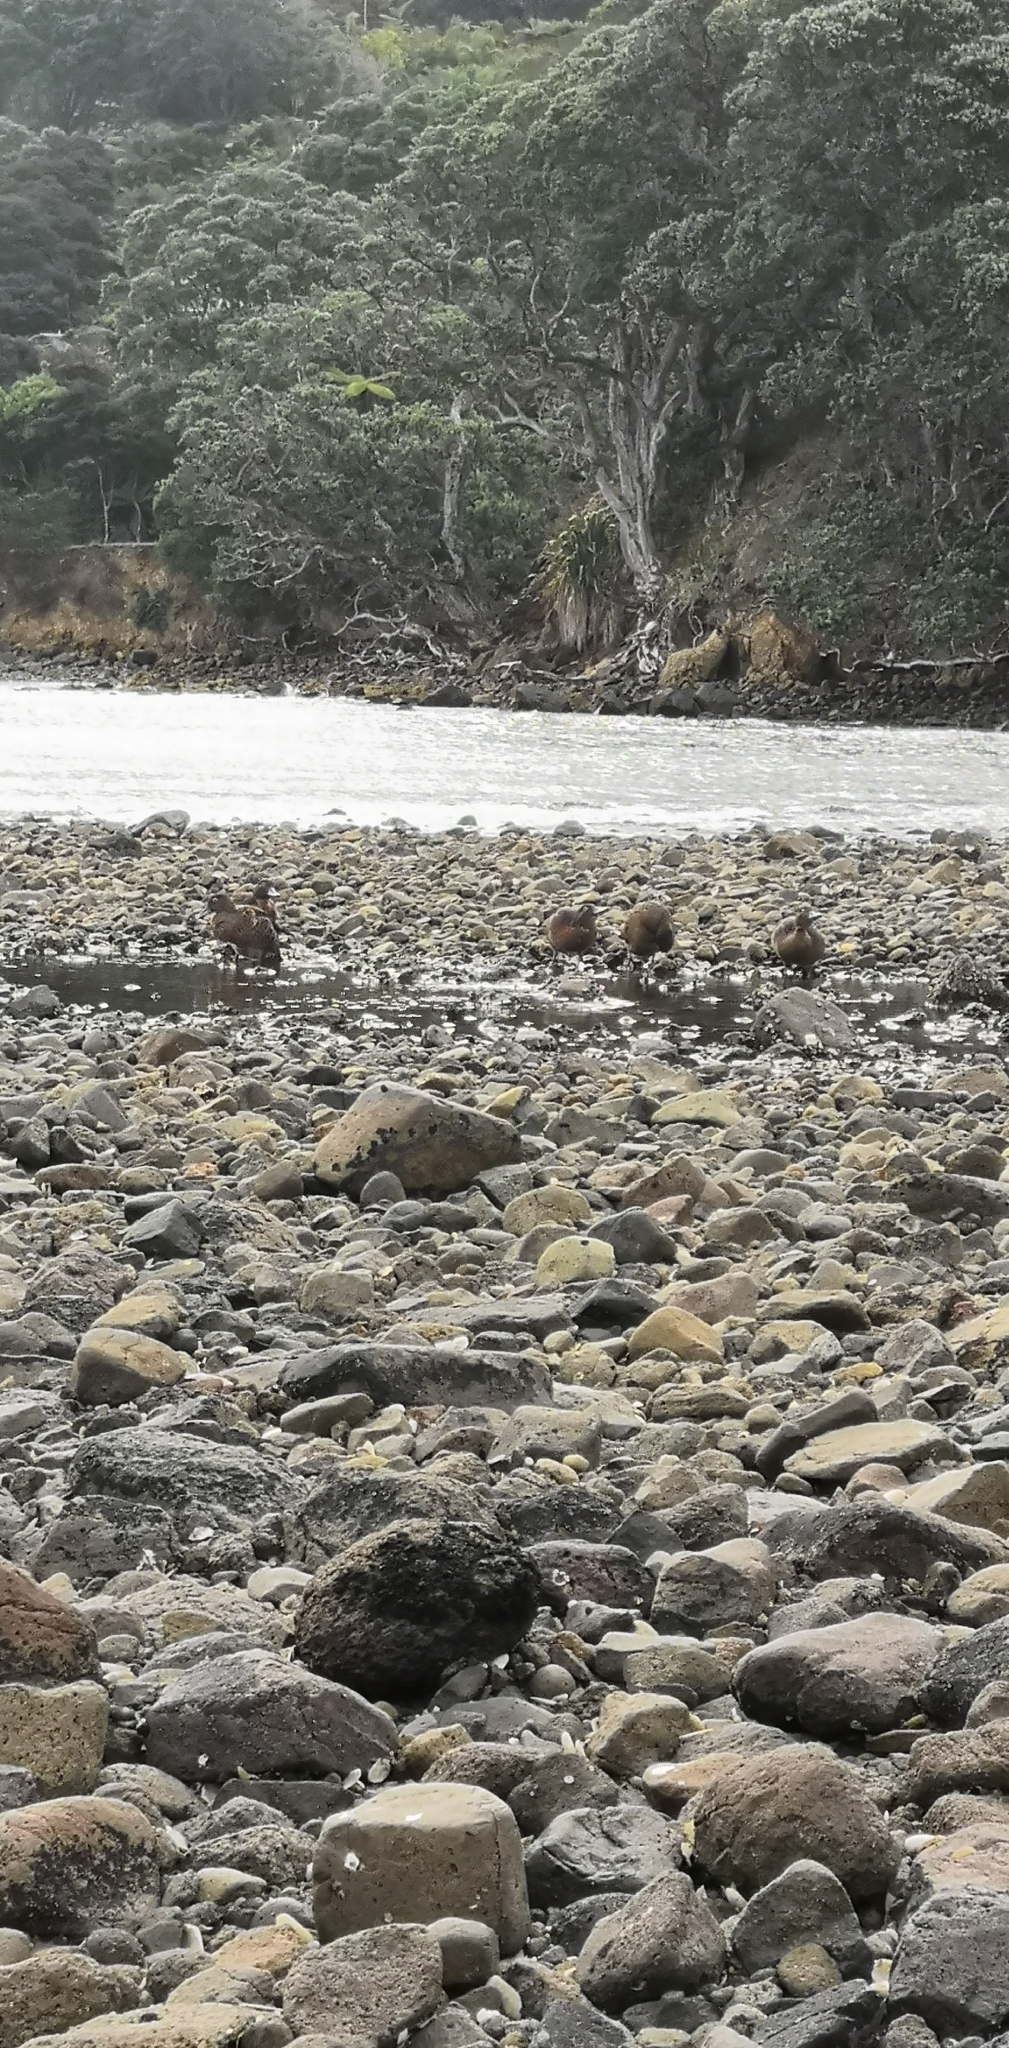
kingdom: Animalia
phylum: Chordata
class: Aves
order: Anseriformes
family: Anatidae
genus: Anas
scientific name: Anas chlorotis
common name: Brown teal
